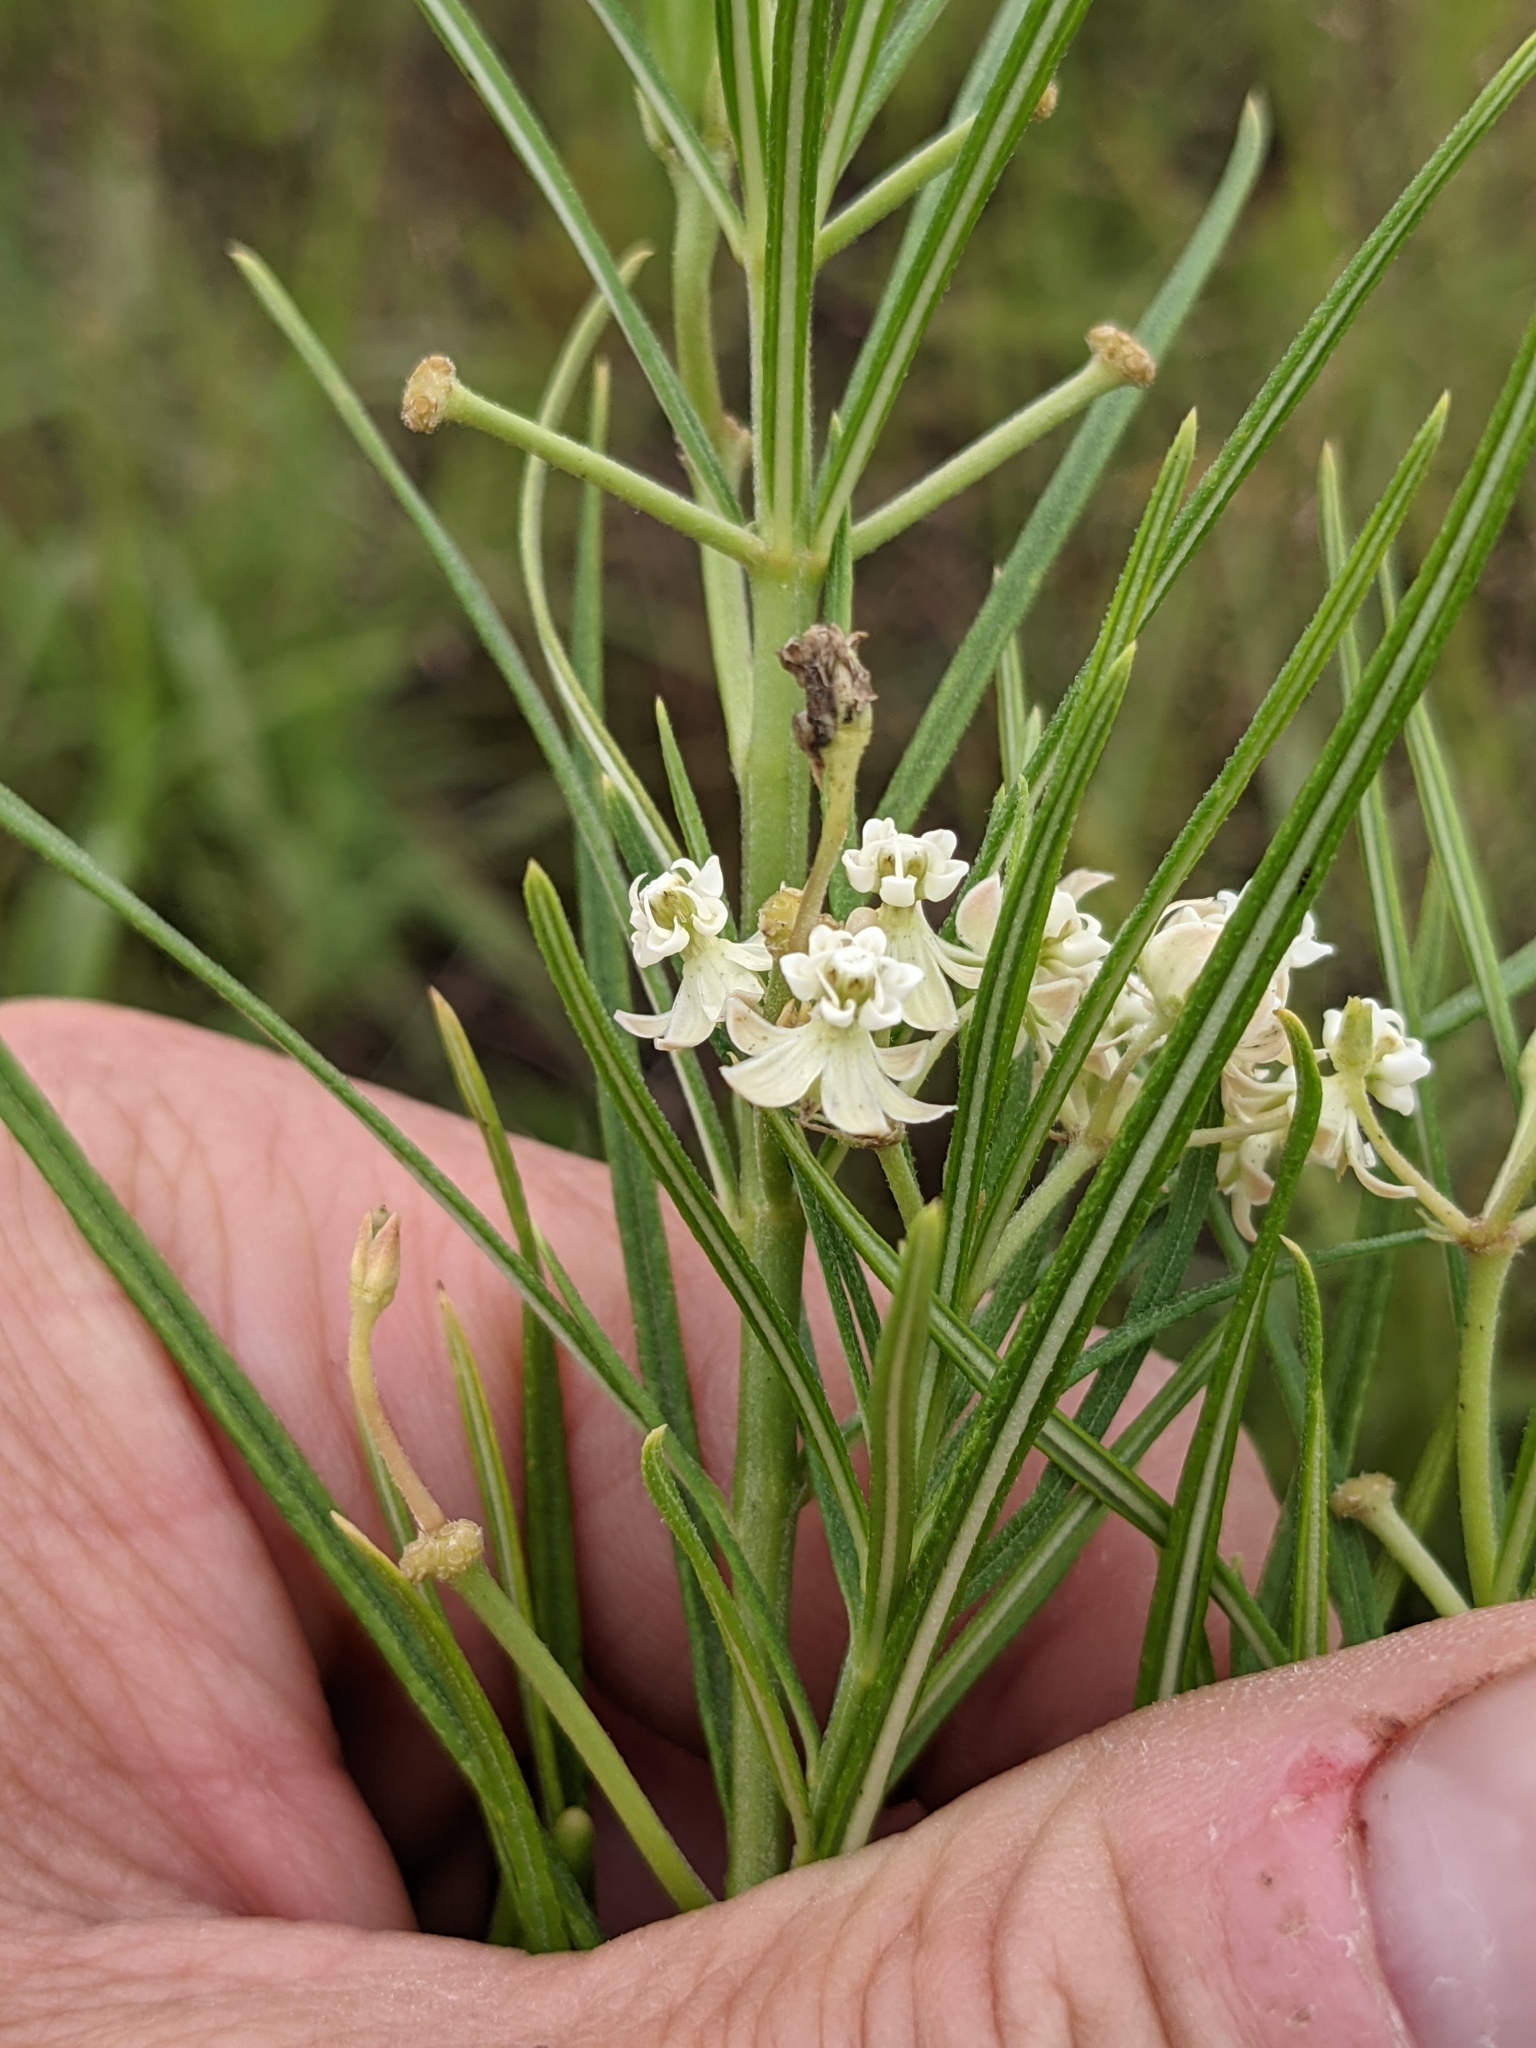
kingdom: Plantae
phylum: Tracheophyta
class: Magnoliopsida
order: Gentianales
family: Apocynaceae
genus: Asclepias
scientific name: Asclepias verticillata
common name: Eastern whorled milkweed
